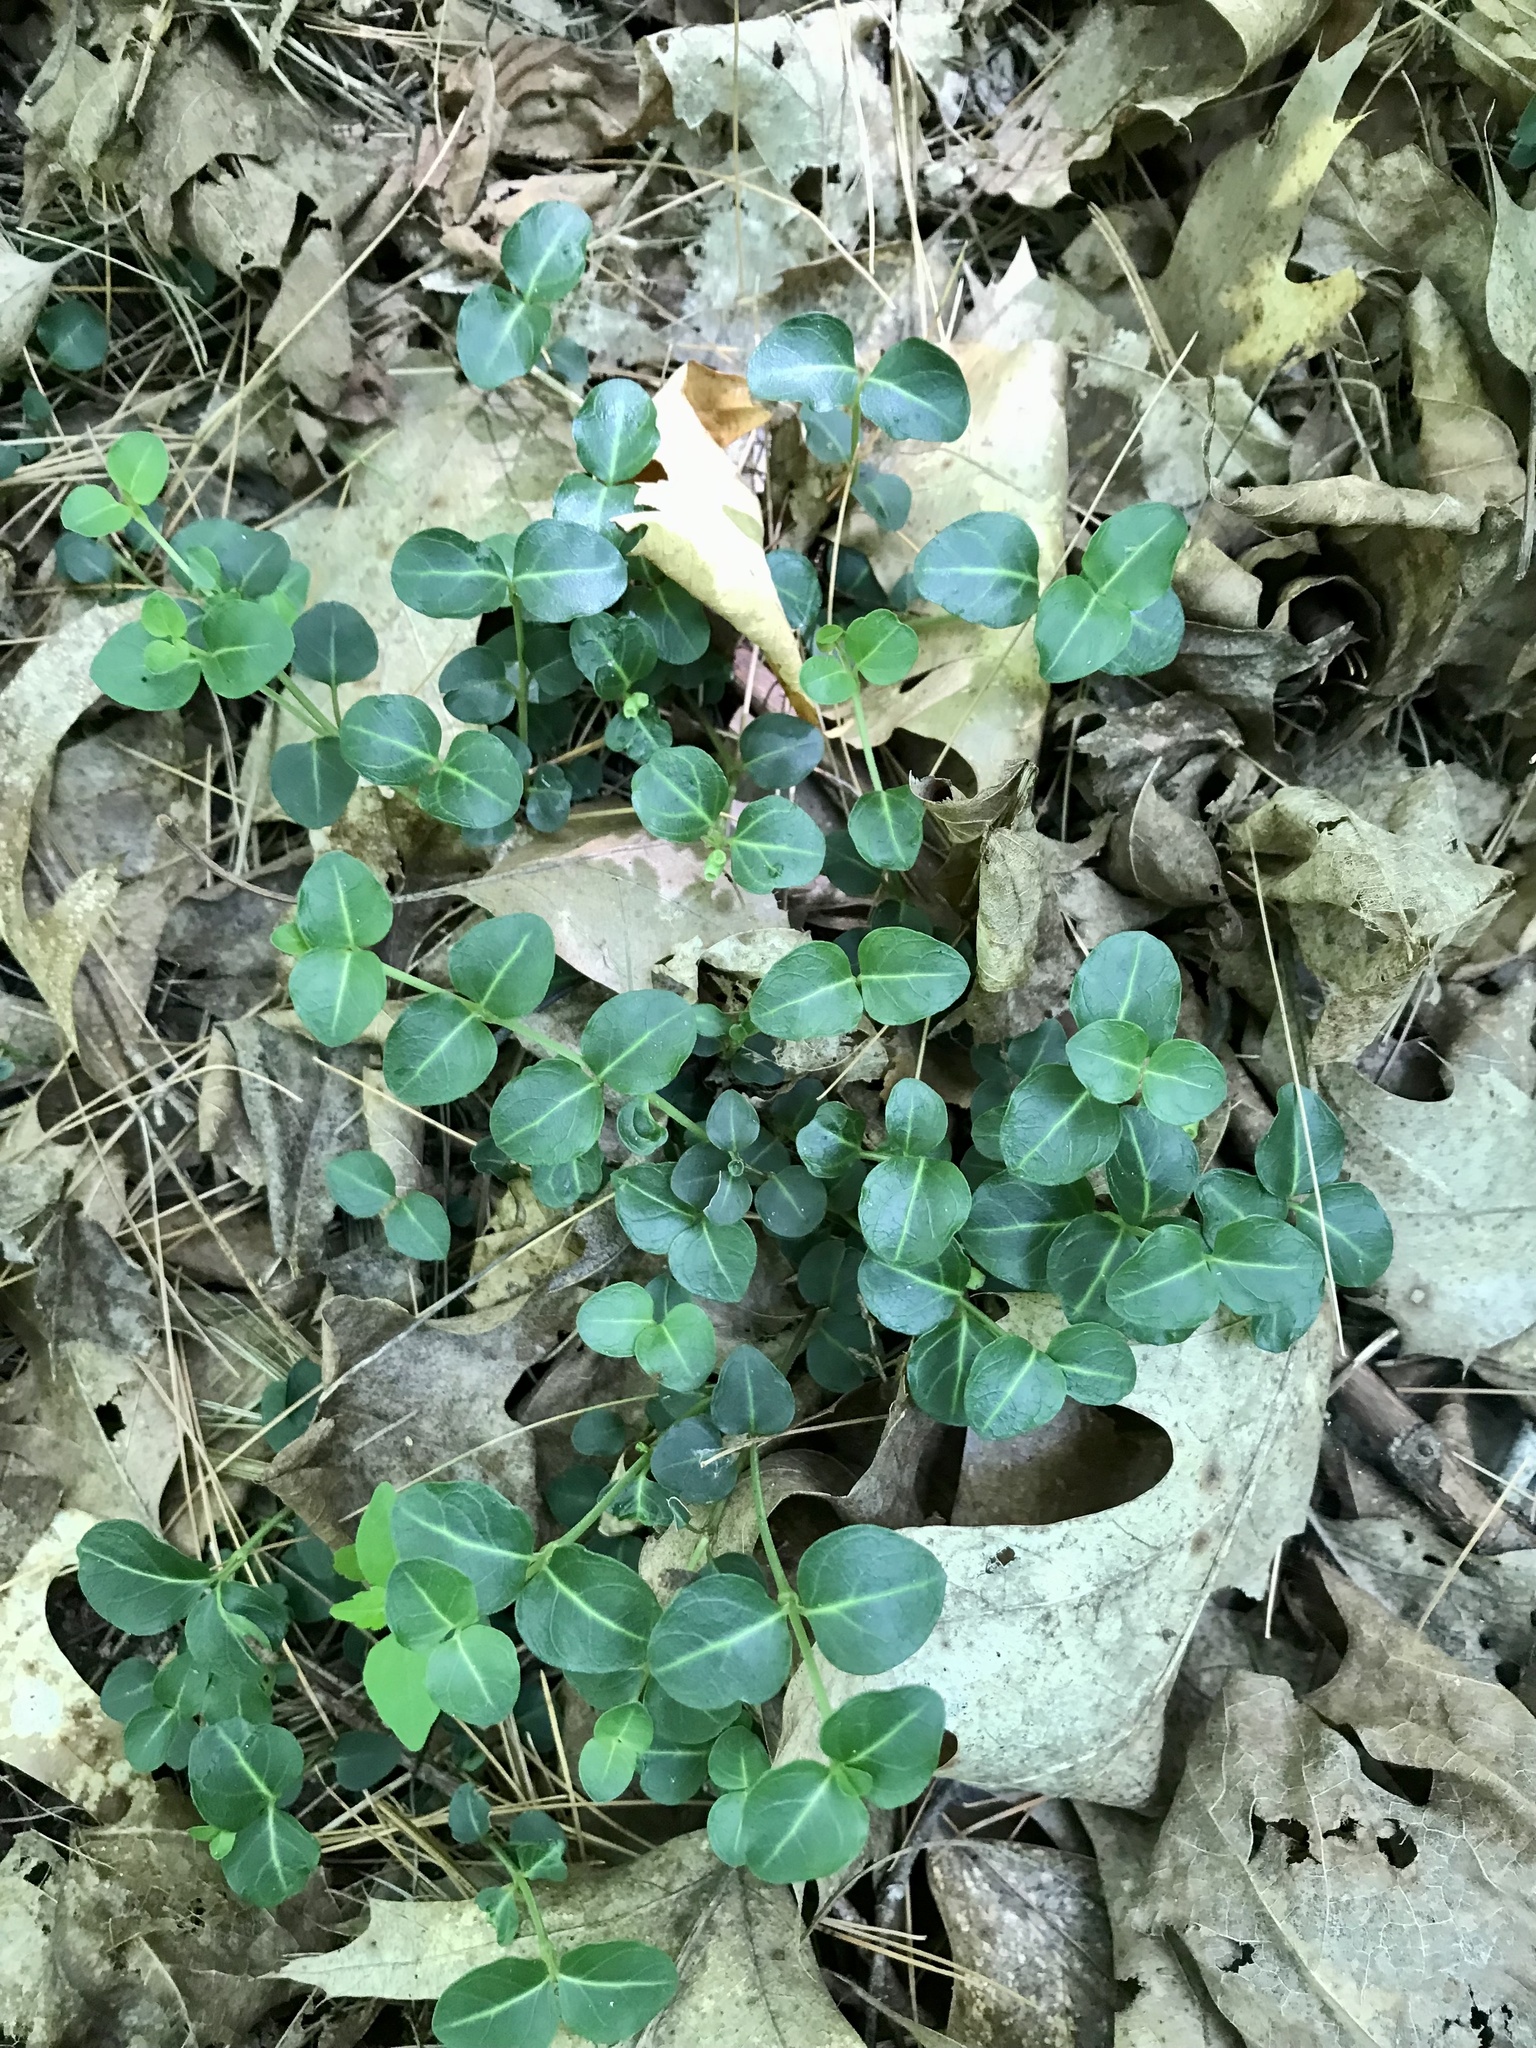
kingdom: Plantae
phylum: Tracheophyta
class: Magnoliopsida
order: Gentianales
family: Rubiaceae
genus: Mitchella
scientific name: Mitchella repens
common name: Partridge-berry
